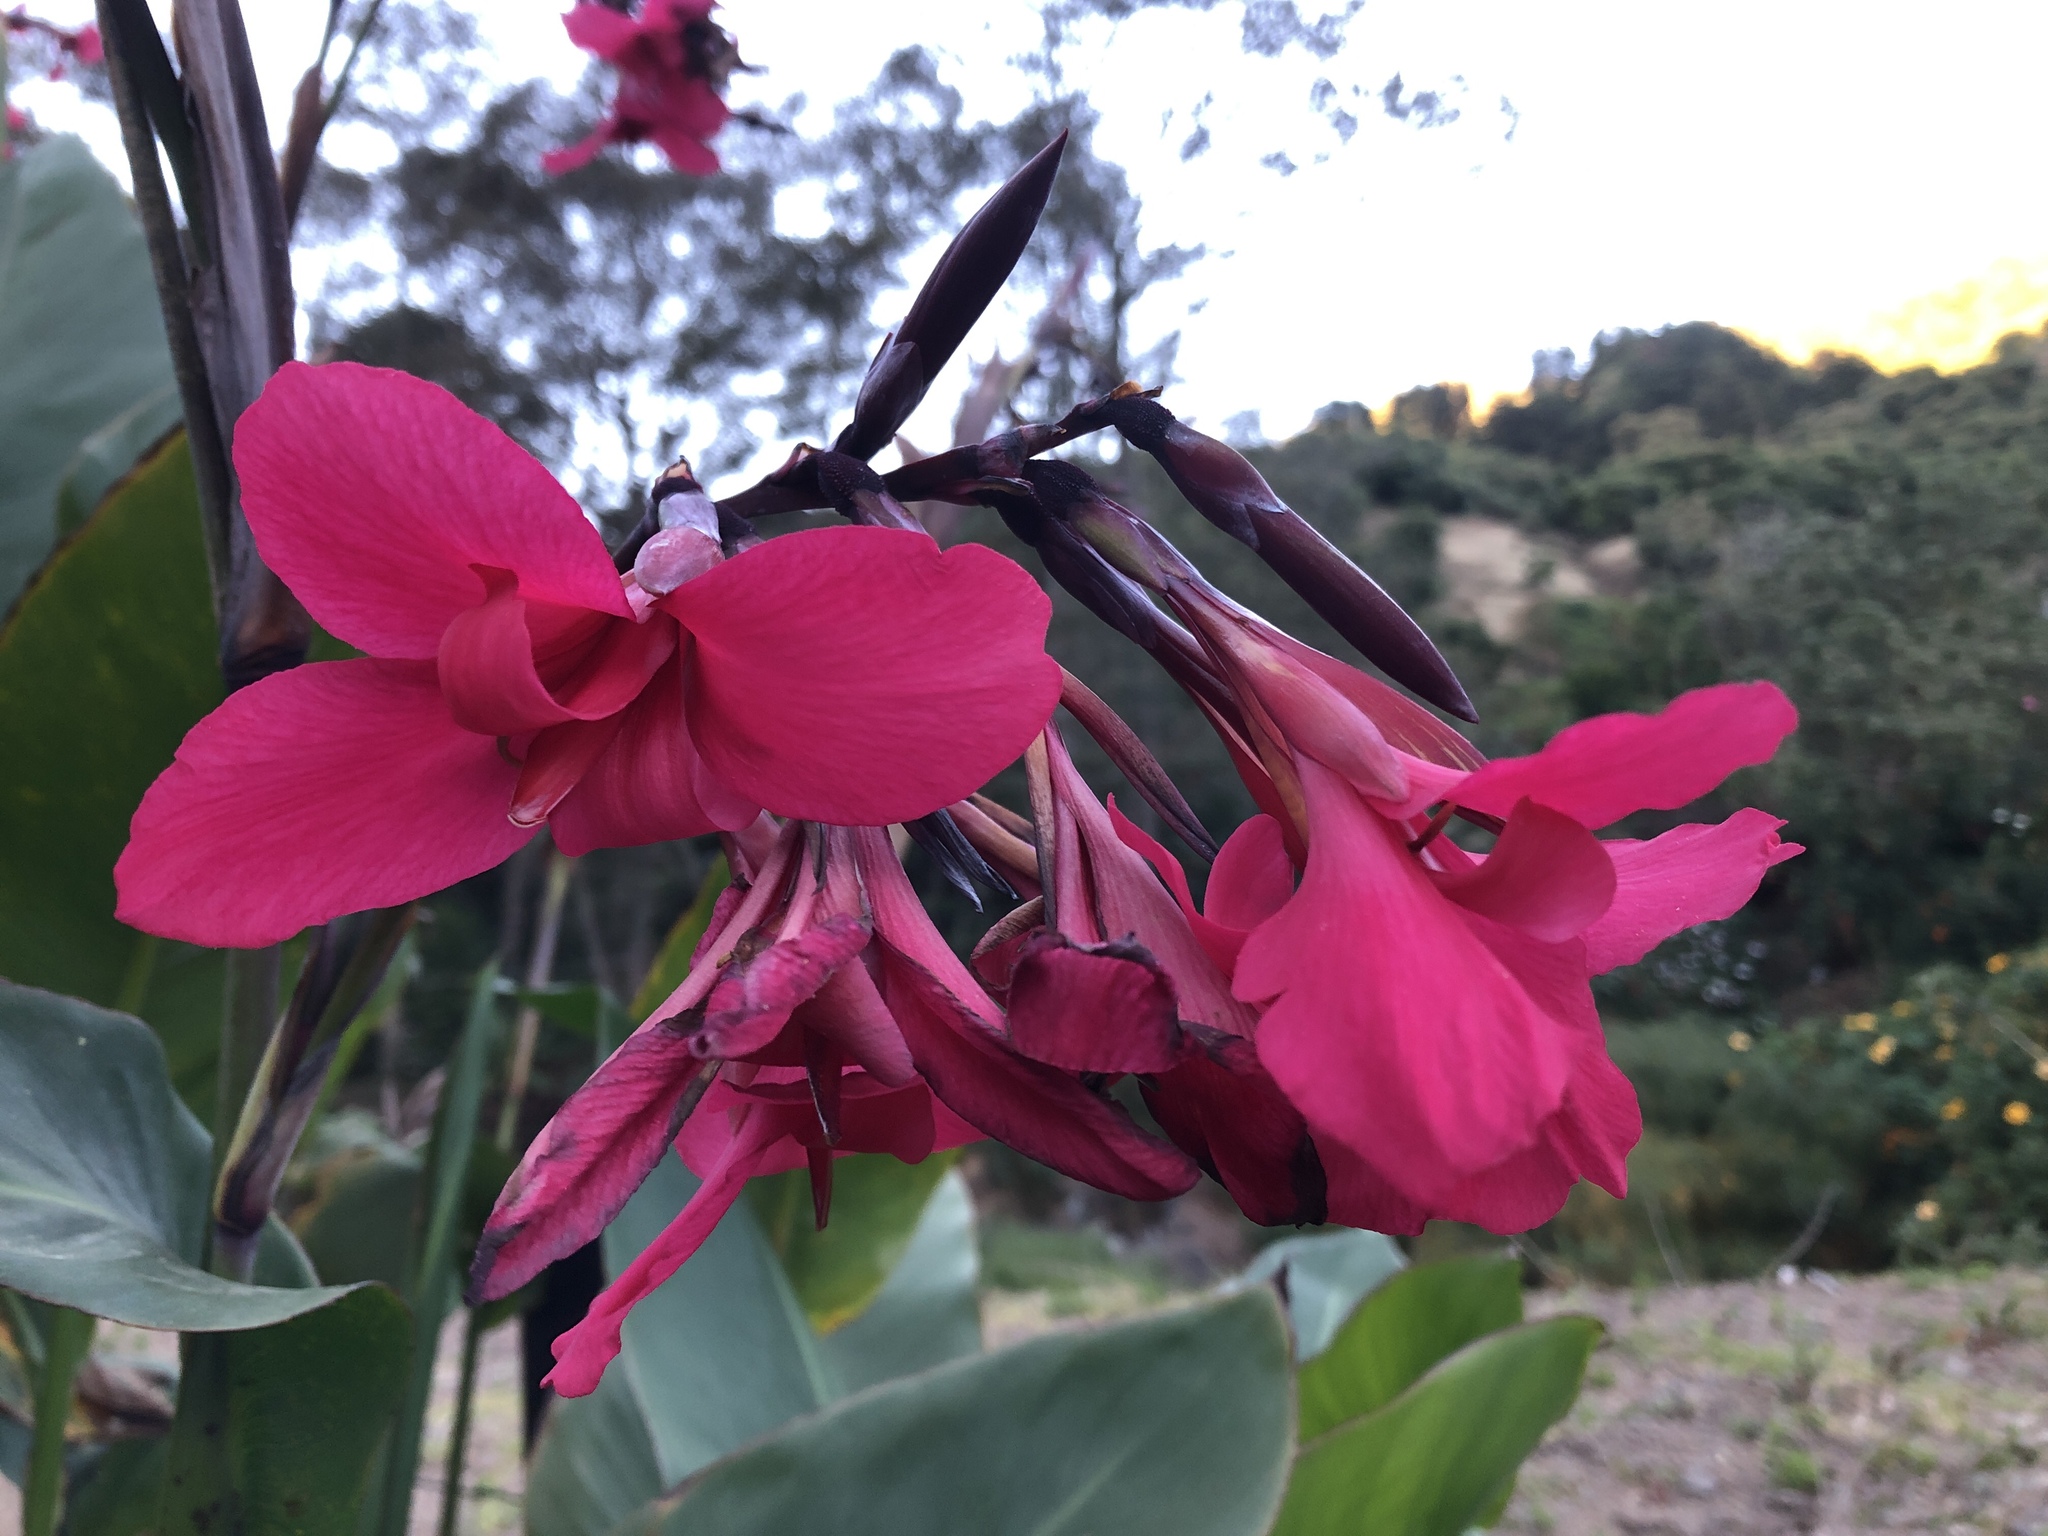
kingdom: Plantae
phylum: Tracheophyta
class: Liliopsida
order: Zingiberales
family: Cannaceae
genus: Canna
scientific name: Canna hybrida
